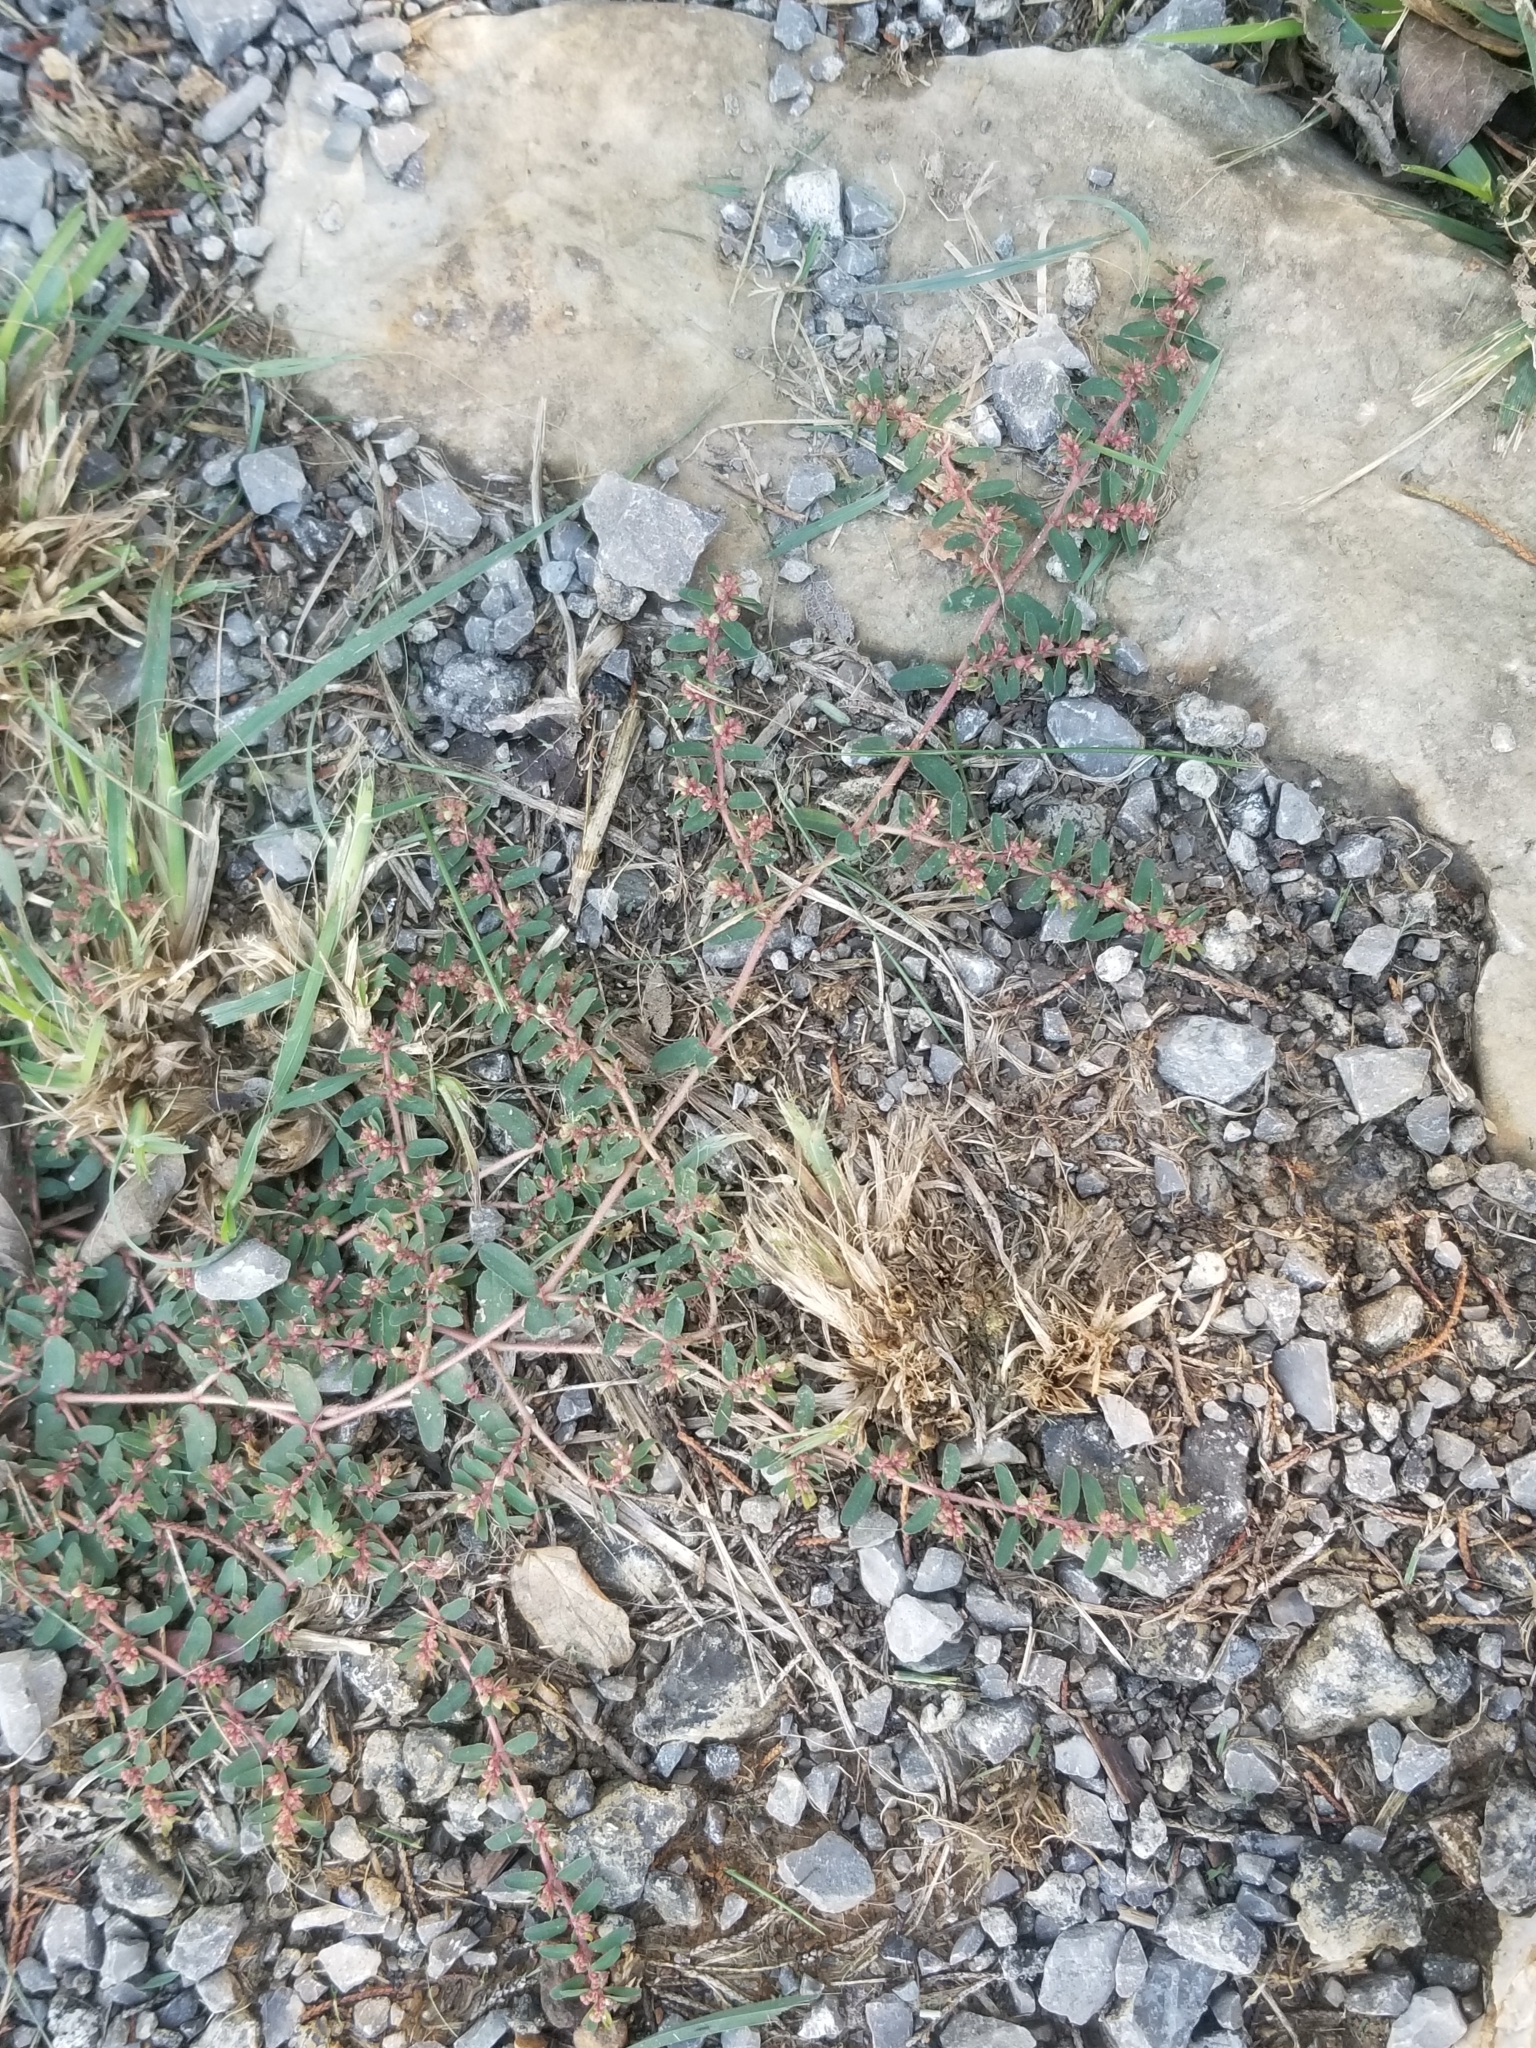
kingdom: Plantae
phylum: Tracheophyta
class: Magnoliopsida
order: Malpighiales
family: Euphorbiaceae
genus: Euphorbia
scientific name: Euphorbia maculata
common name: Spotted spurge
